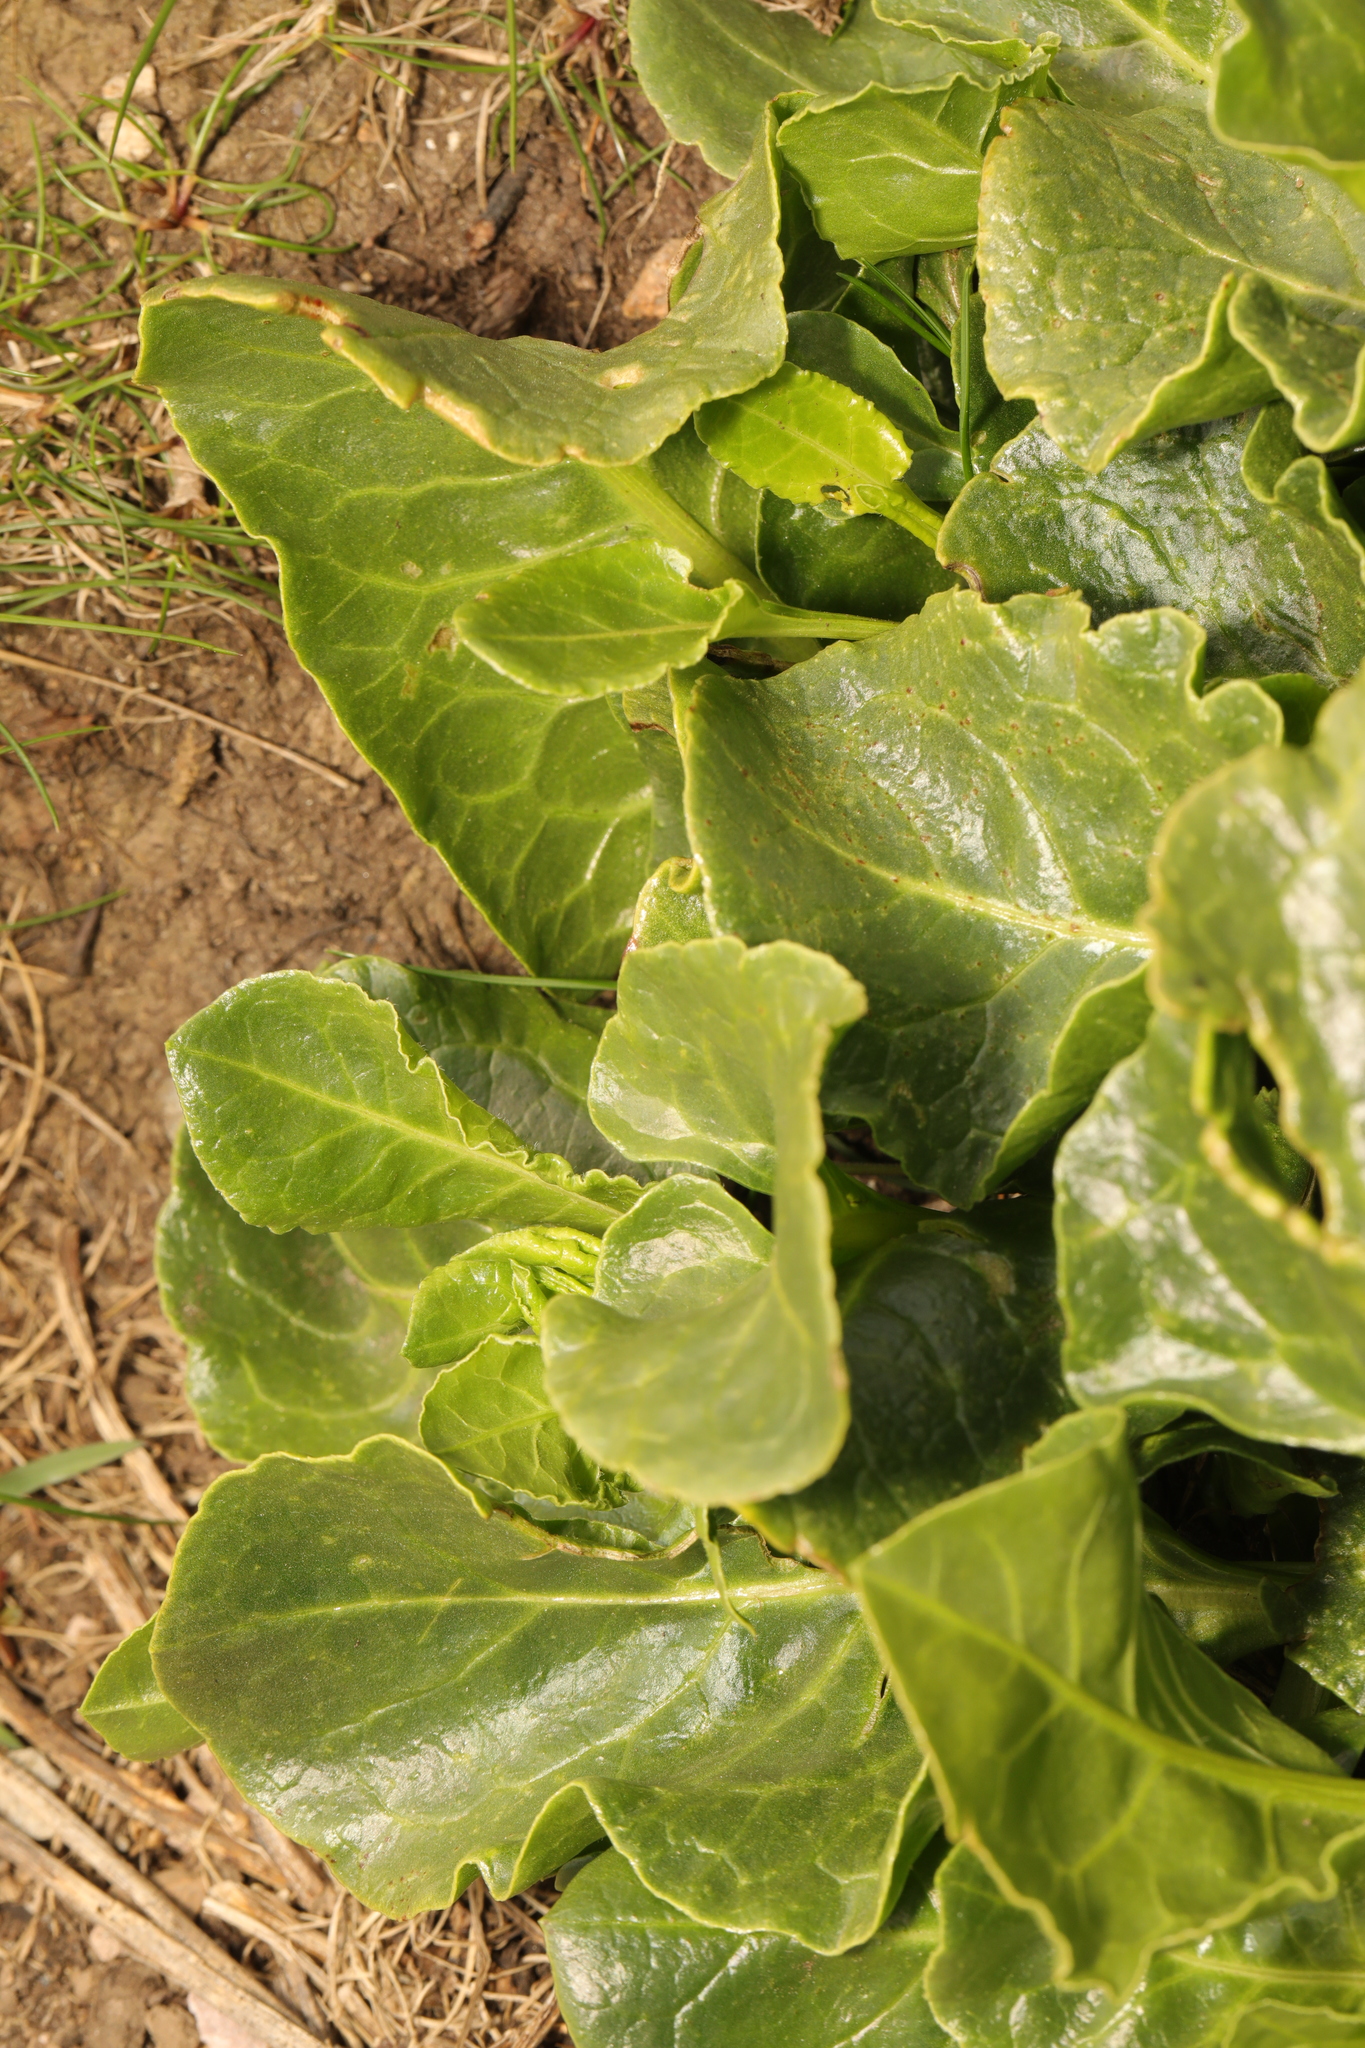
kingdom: Plantae
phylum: Tracheophyta
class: Magnoliopsida
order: Caryophyllales
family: Amaranthaceae
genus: Beta
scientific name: Beta vulgaris
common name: Beet
